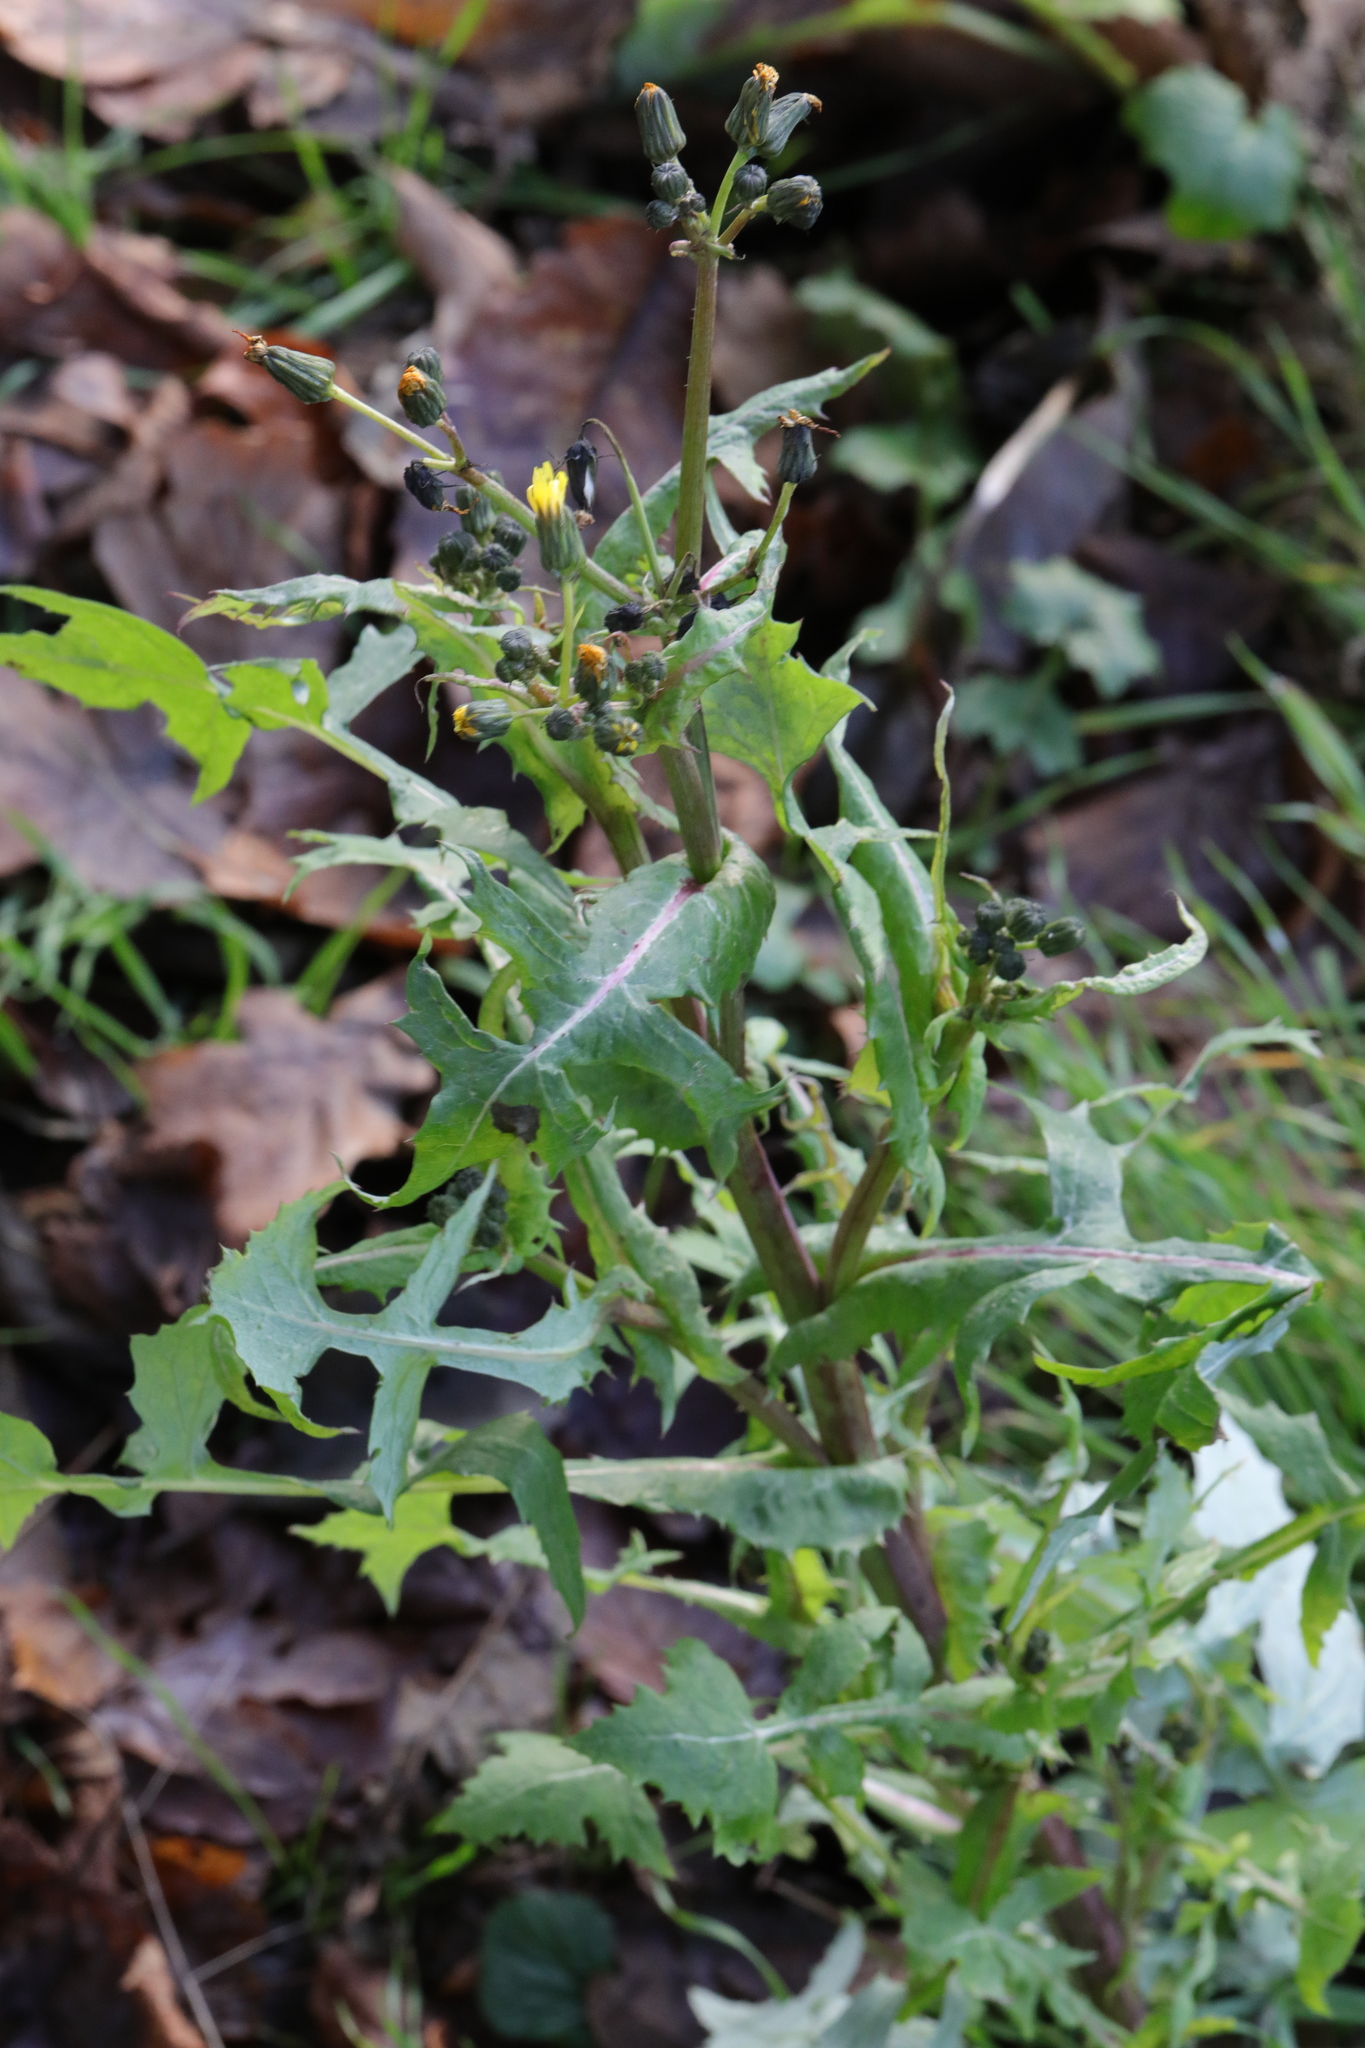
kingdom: Plantae
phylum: Tracheophyta
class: Magnoliopsida
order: Asterales
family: Asteraceae
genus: Sonchus
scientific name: Sonchus oleraceus
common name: Common sowthistle
